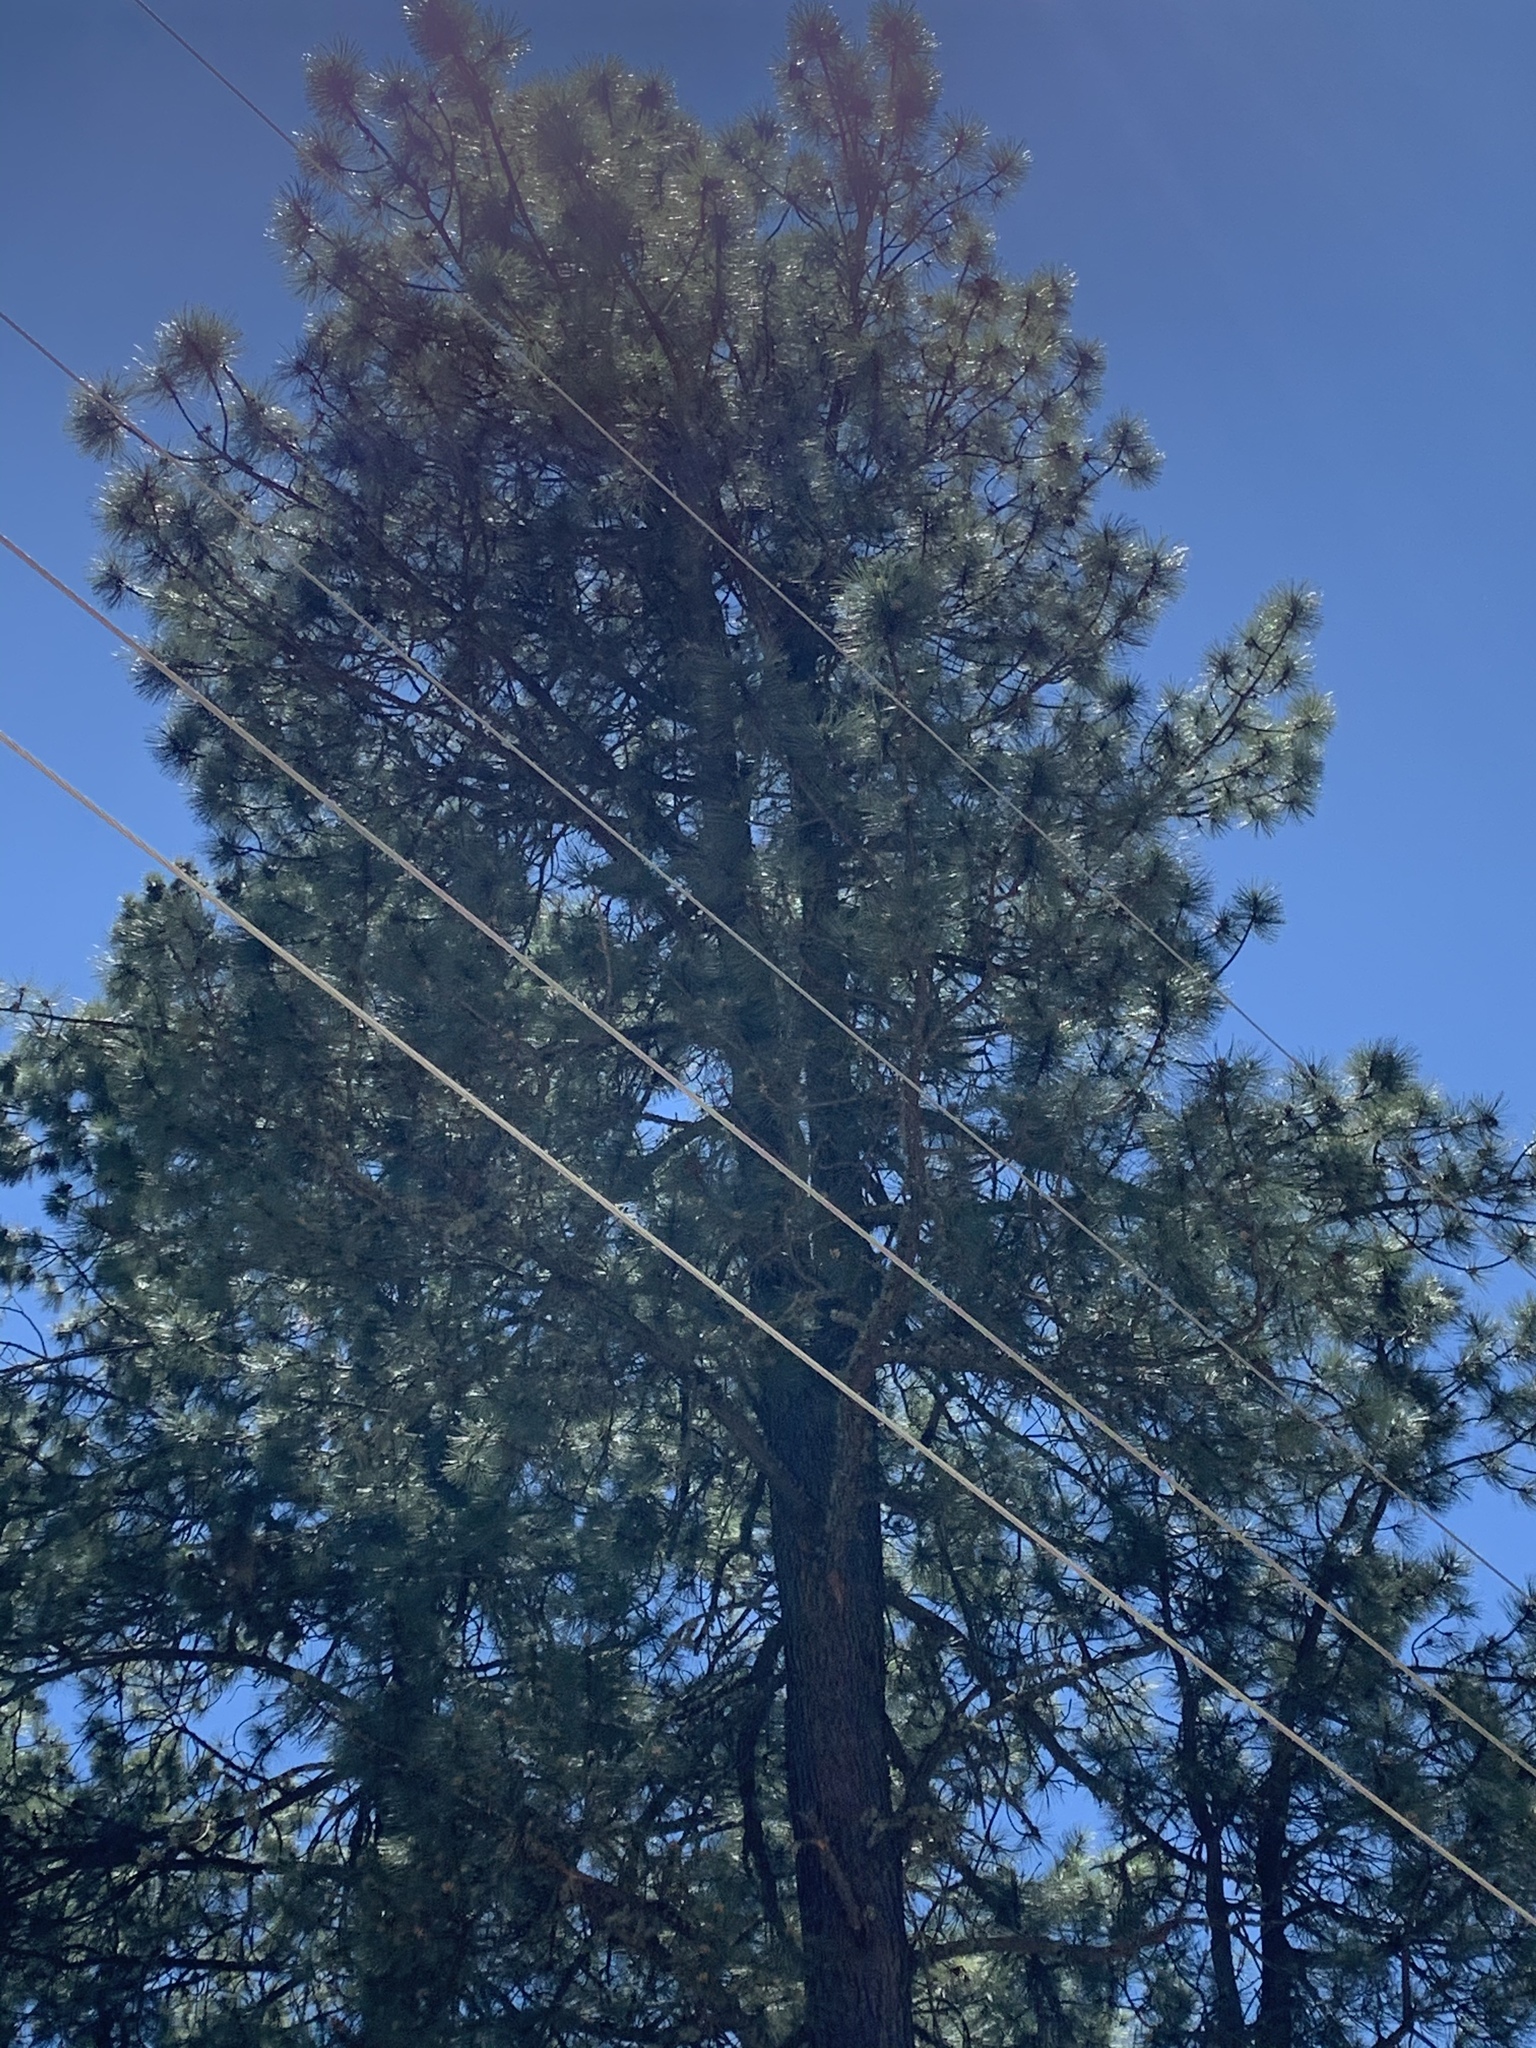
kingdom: Plantae
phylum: Tracheophyta
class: Pinopsida
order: Pinales
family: Pinaceae
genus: Pinus
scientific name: Pinus ponderosa
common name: Western yellow-pine
